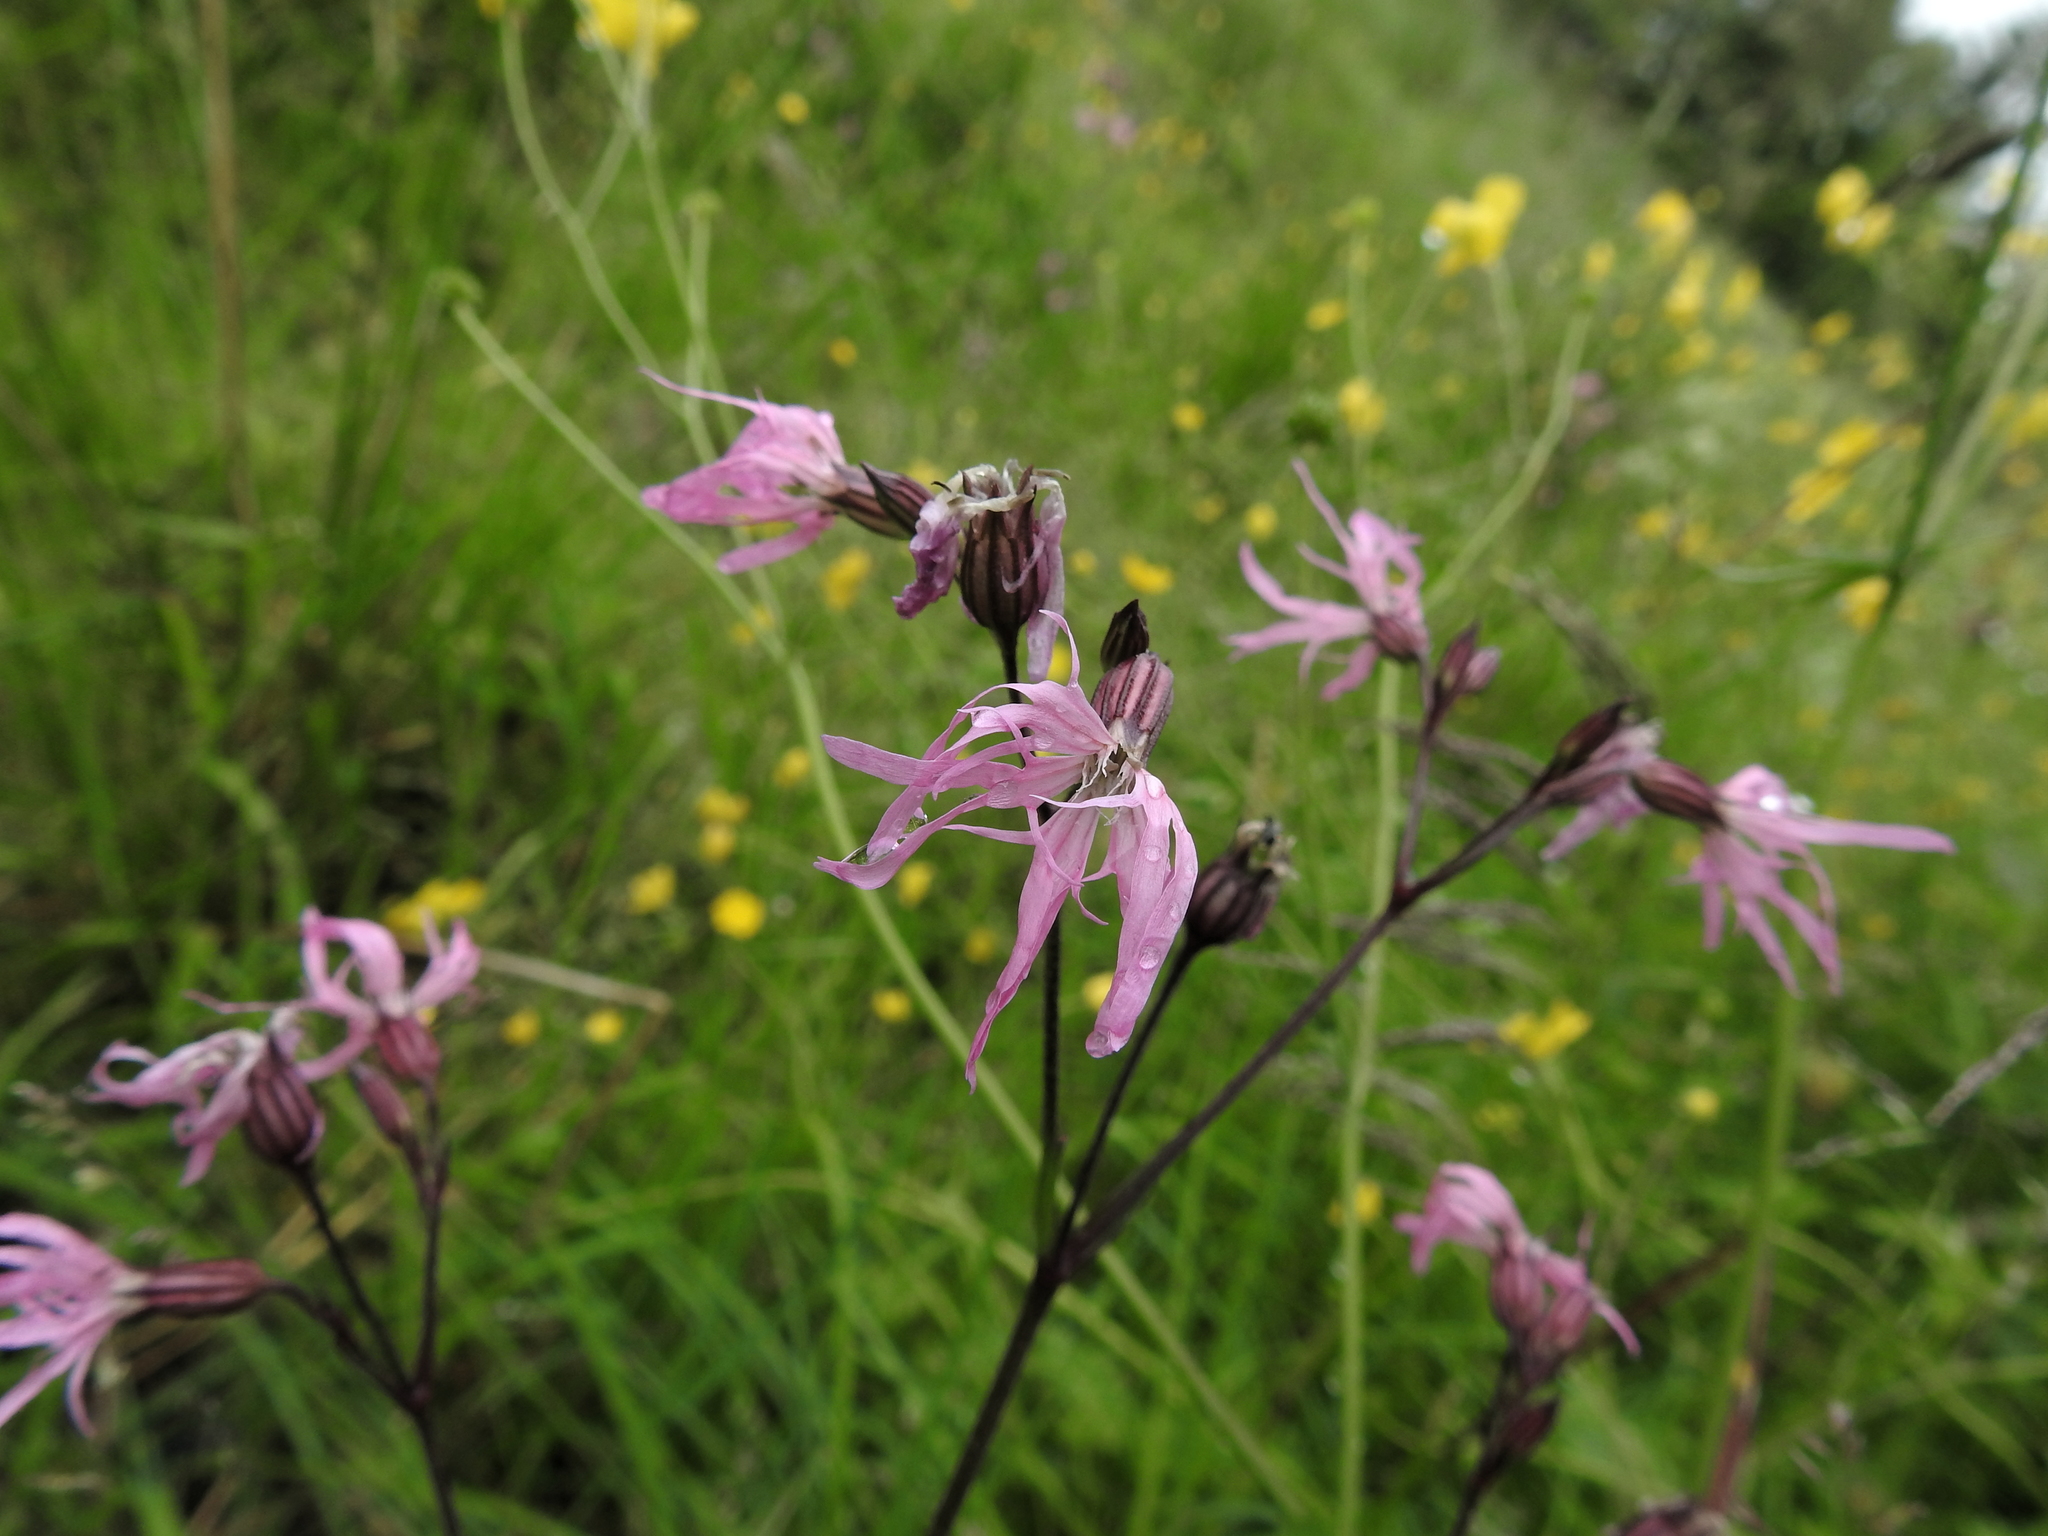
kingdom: Plantae
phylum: Tracheophyta
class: Magnoliopsida
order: Caryophyllales
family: Caryophyllaceae
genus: Silene
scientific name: Silene flos-cuculi
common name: Ragged-robin
